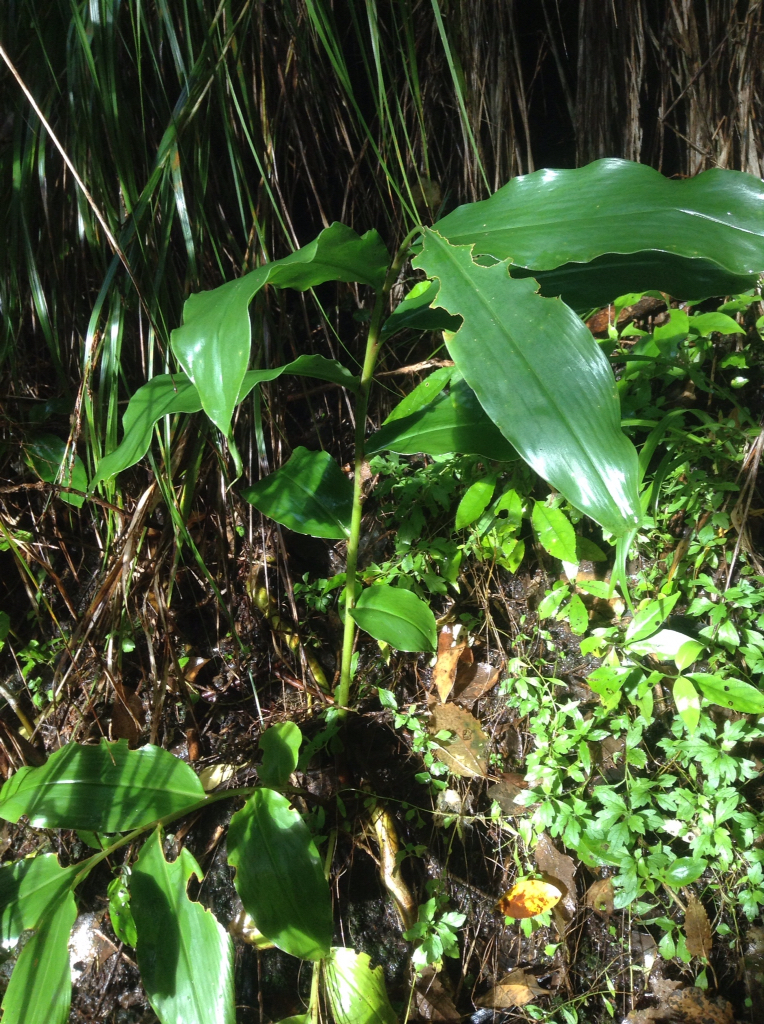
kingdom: Plantae
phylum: Tracheophyta
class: Liliopsida
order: Zingiberales
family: Zingiberaceae
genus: Hedychium
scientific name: Hedychium gardnerianum
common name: Himalayan ginger
